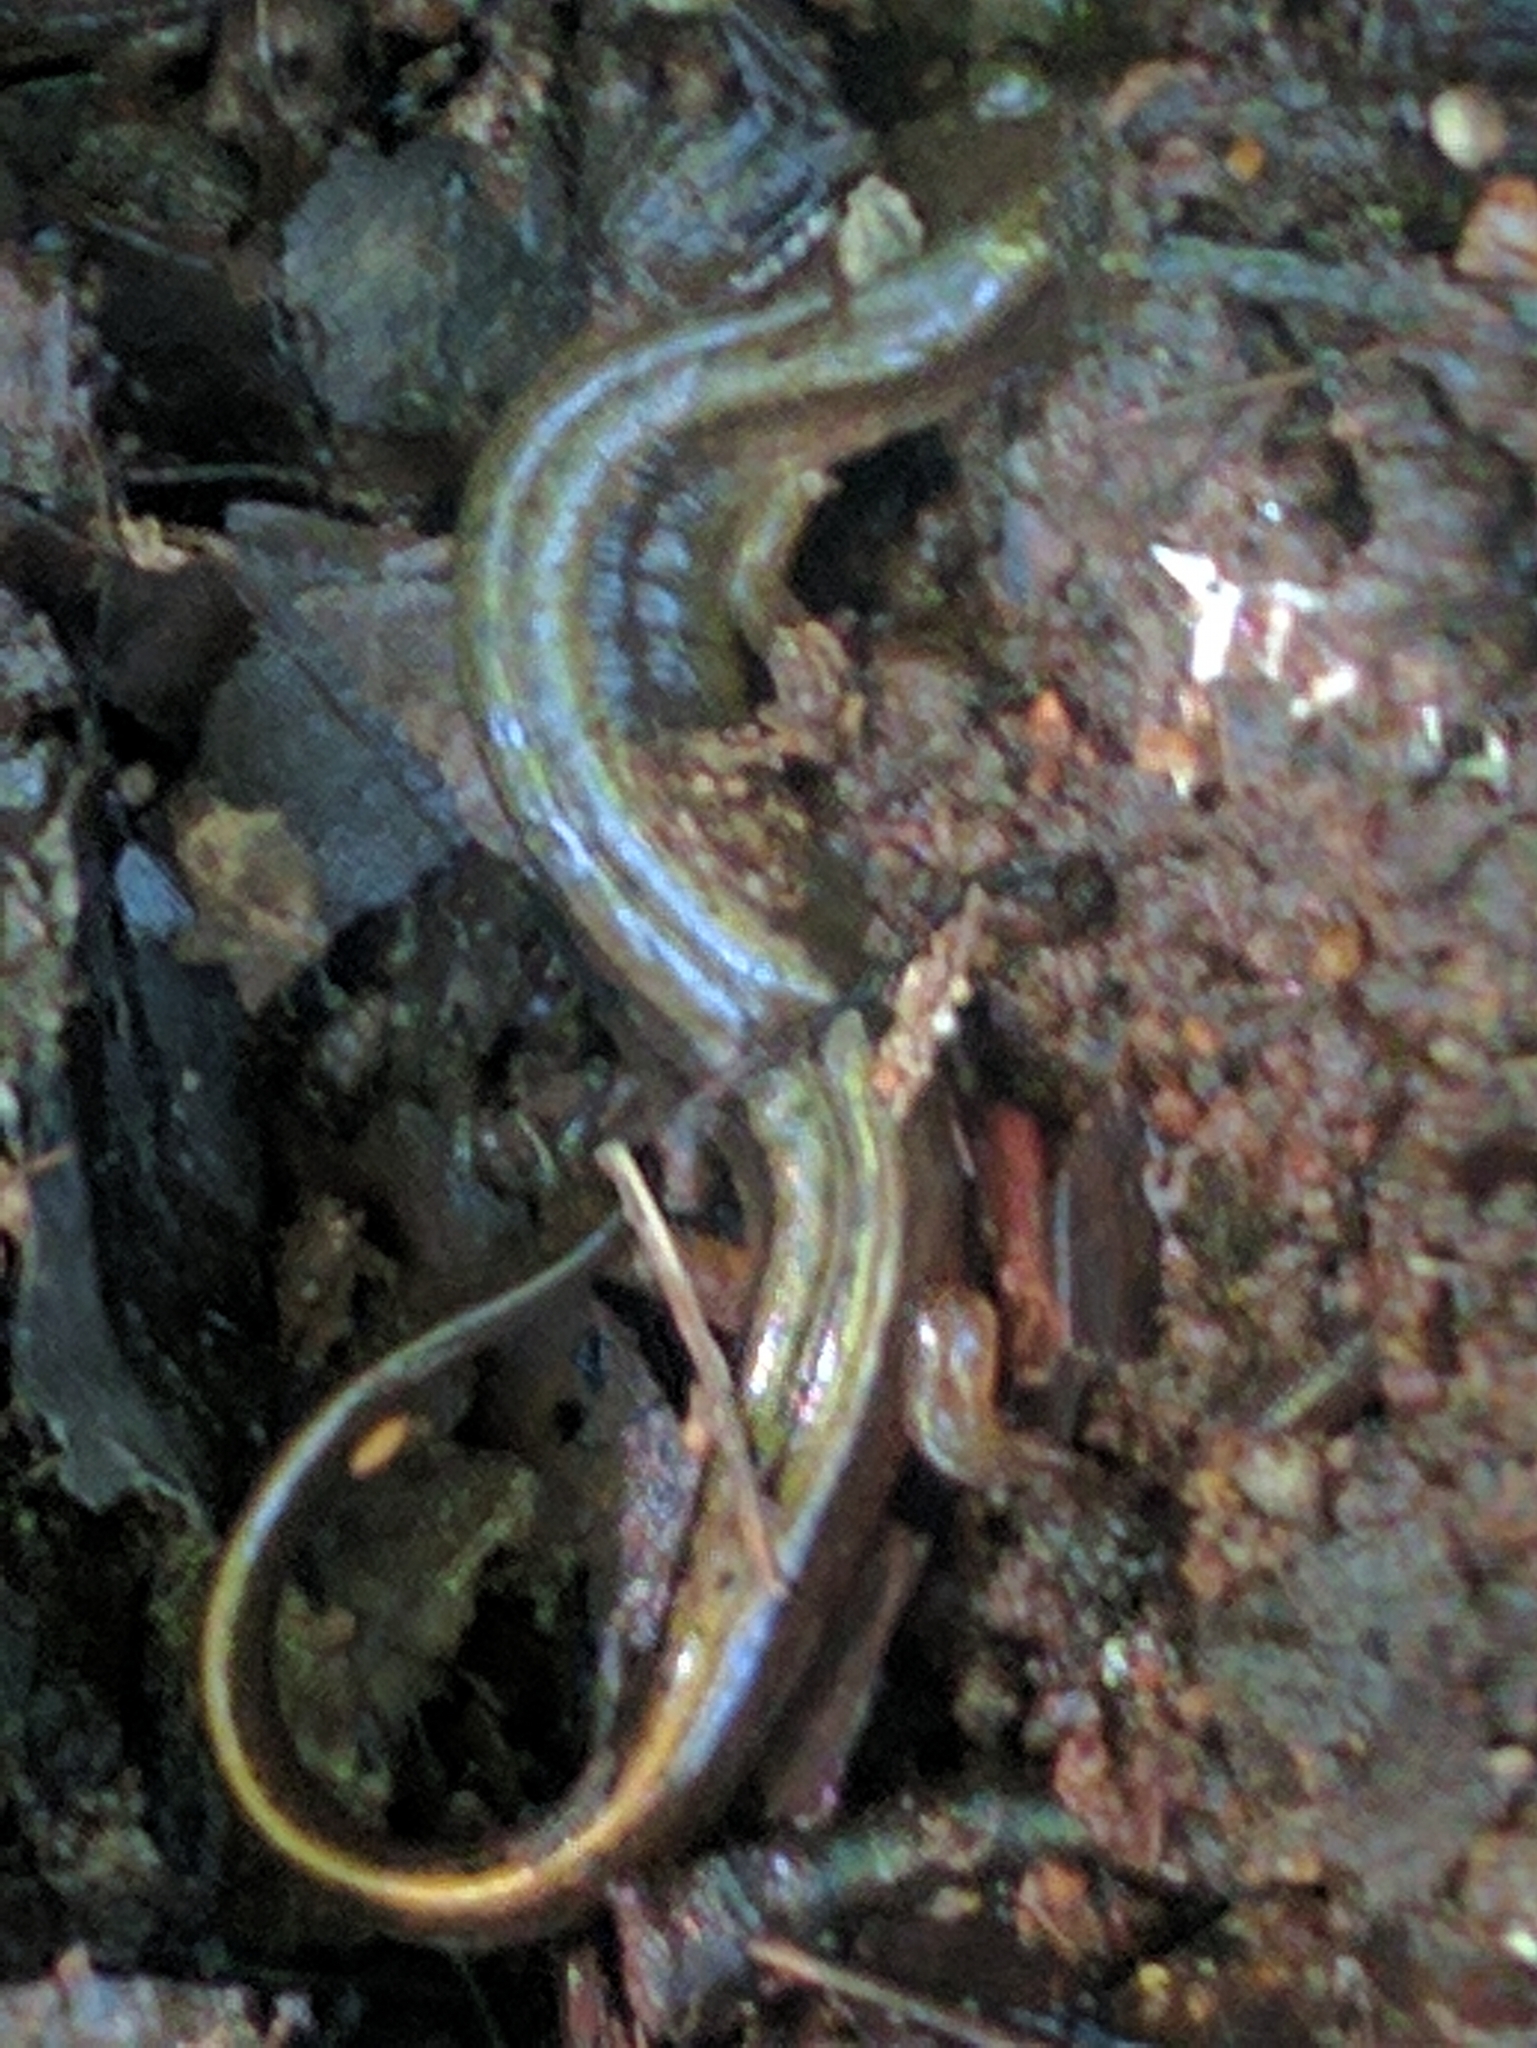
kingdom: Animalia
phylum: Chordata
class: Amphibia
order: Caudata
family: Plethodontidae
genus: Eurycea
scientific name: Eurycea bislineata
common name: Northern two-lined salamander
